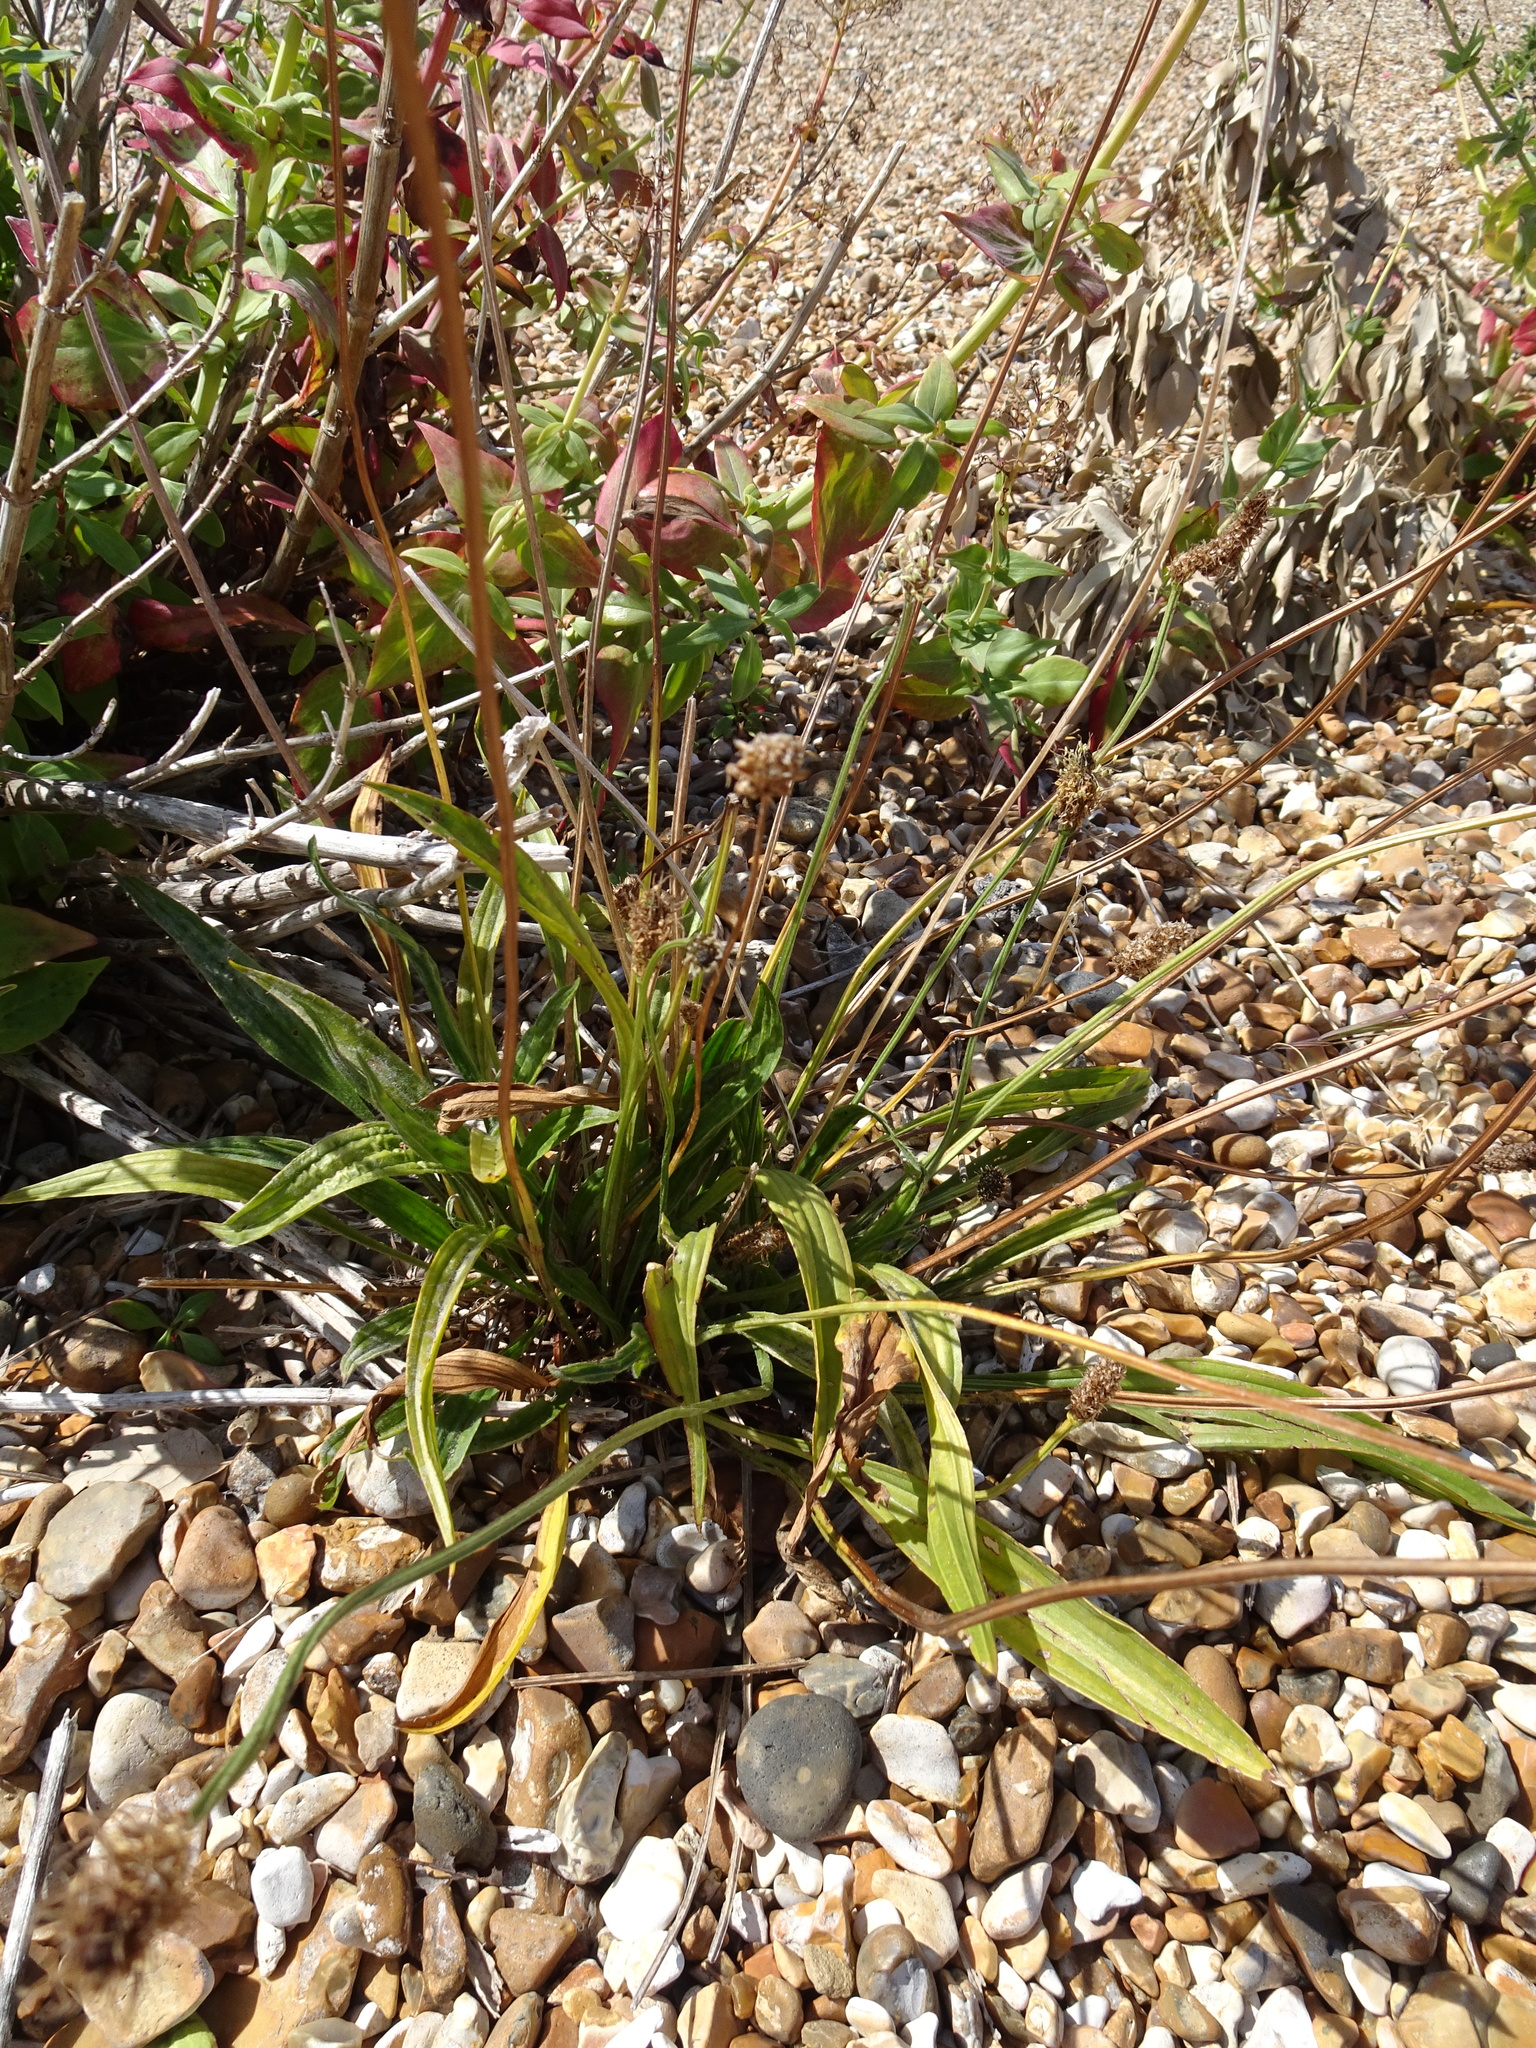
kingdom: Plantae
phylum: Tracheophyta
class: Magnoliopsida
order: Lamiales
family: Plantaginaceae
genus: Plantago
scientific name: Plantago lanceolata
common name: Ribwort plantain
